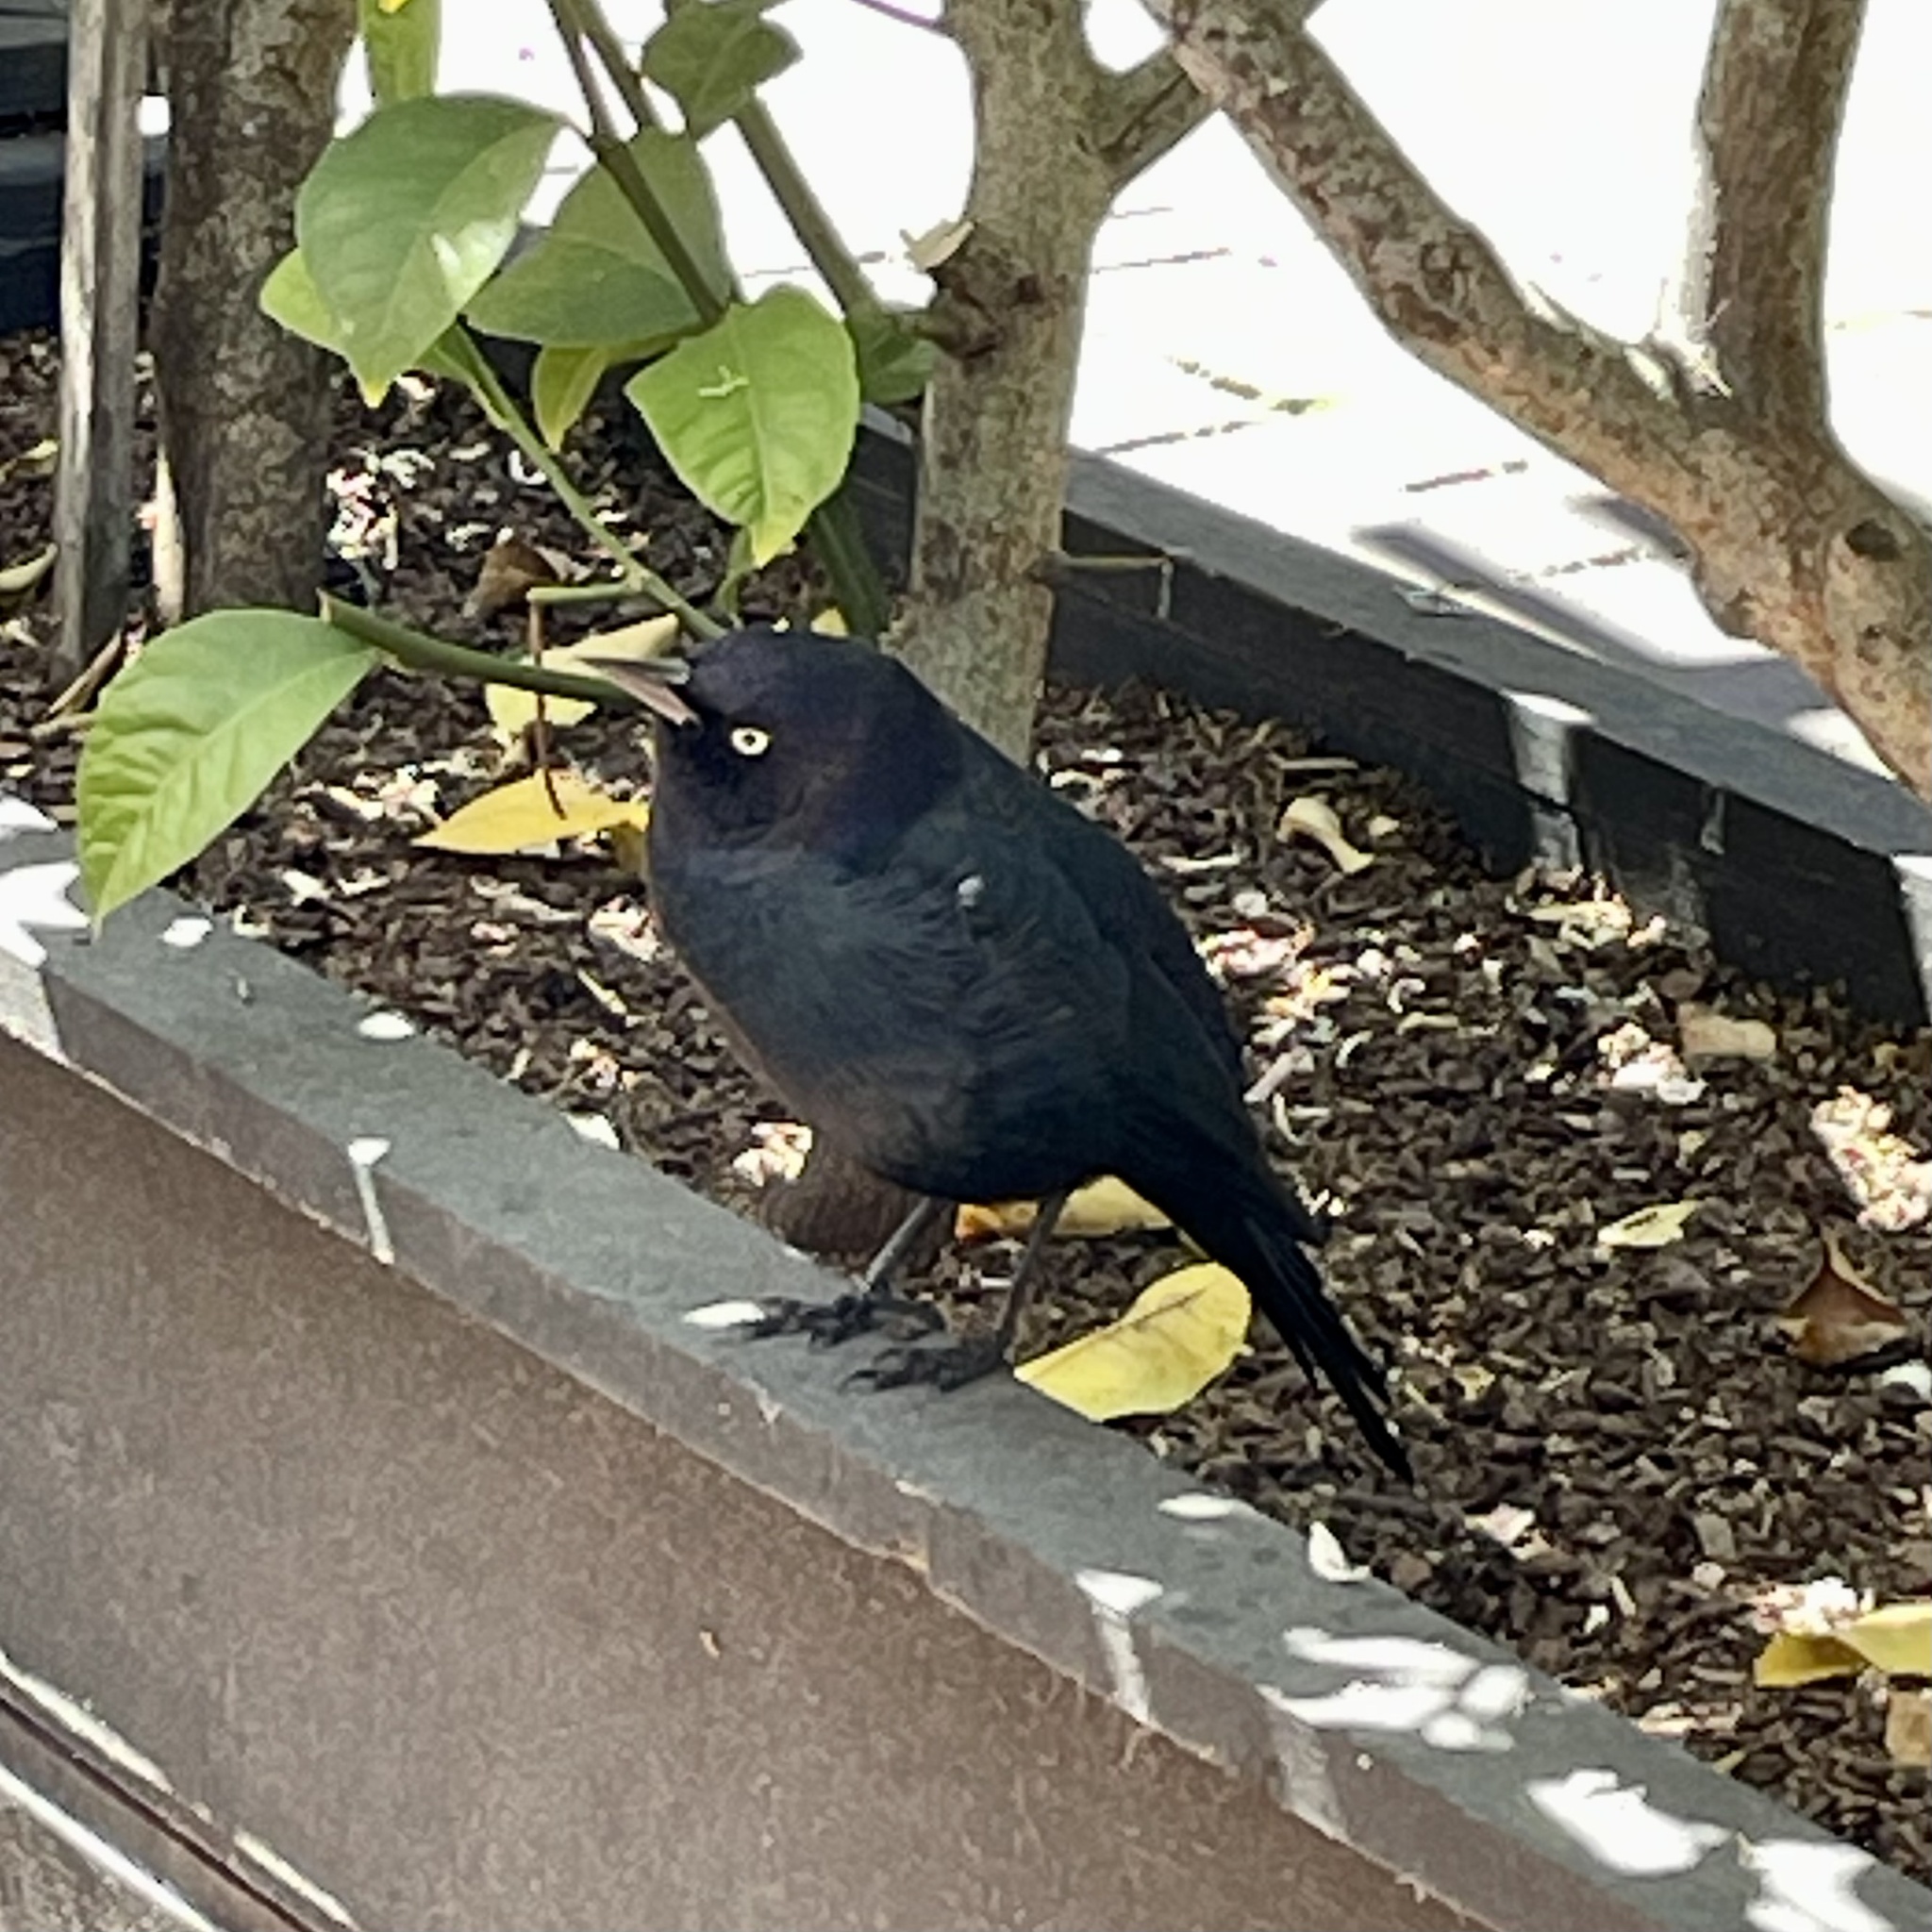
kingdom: Animalia
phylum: Chordata
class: Aves
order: Passeriformes
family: Icteridae
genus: Euphagus
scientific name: Euphagus cyanocephalus
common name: Brewer's blackbird
